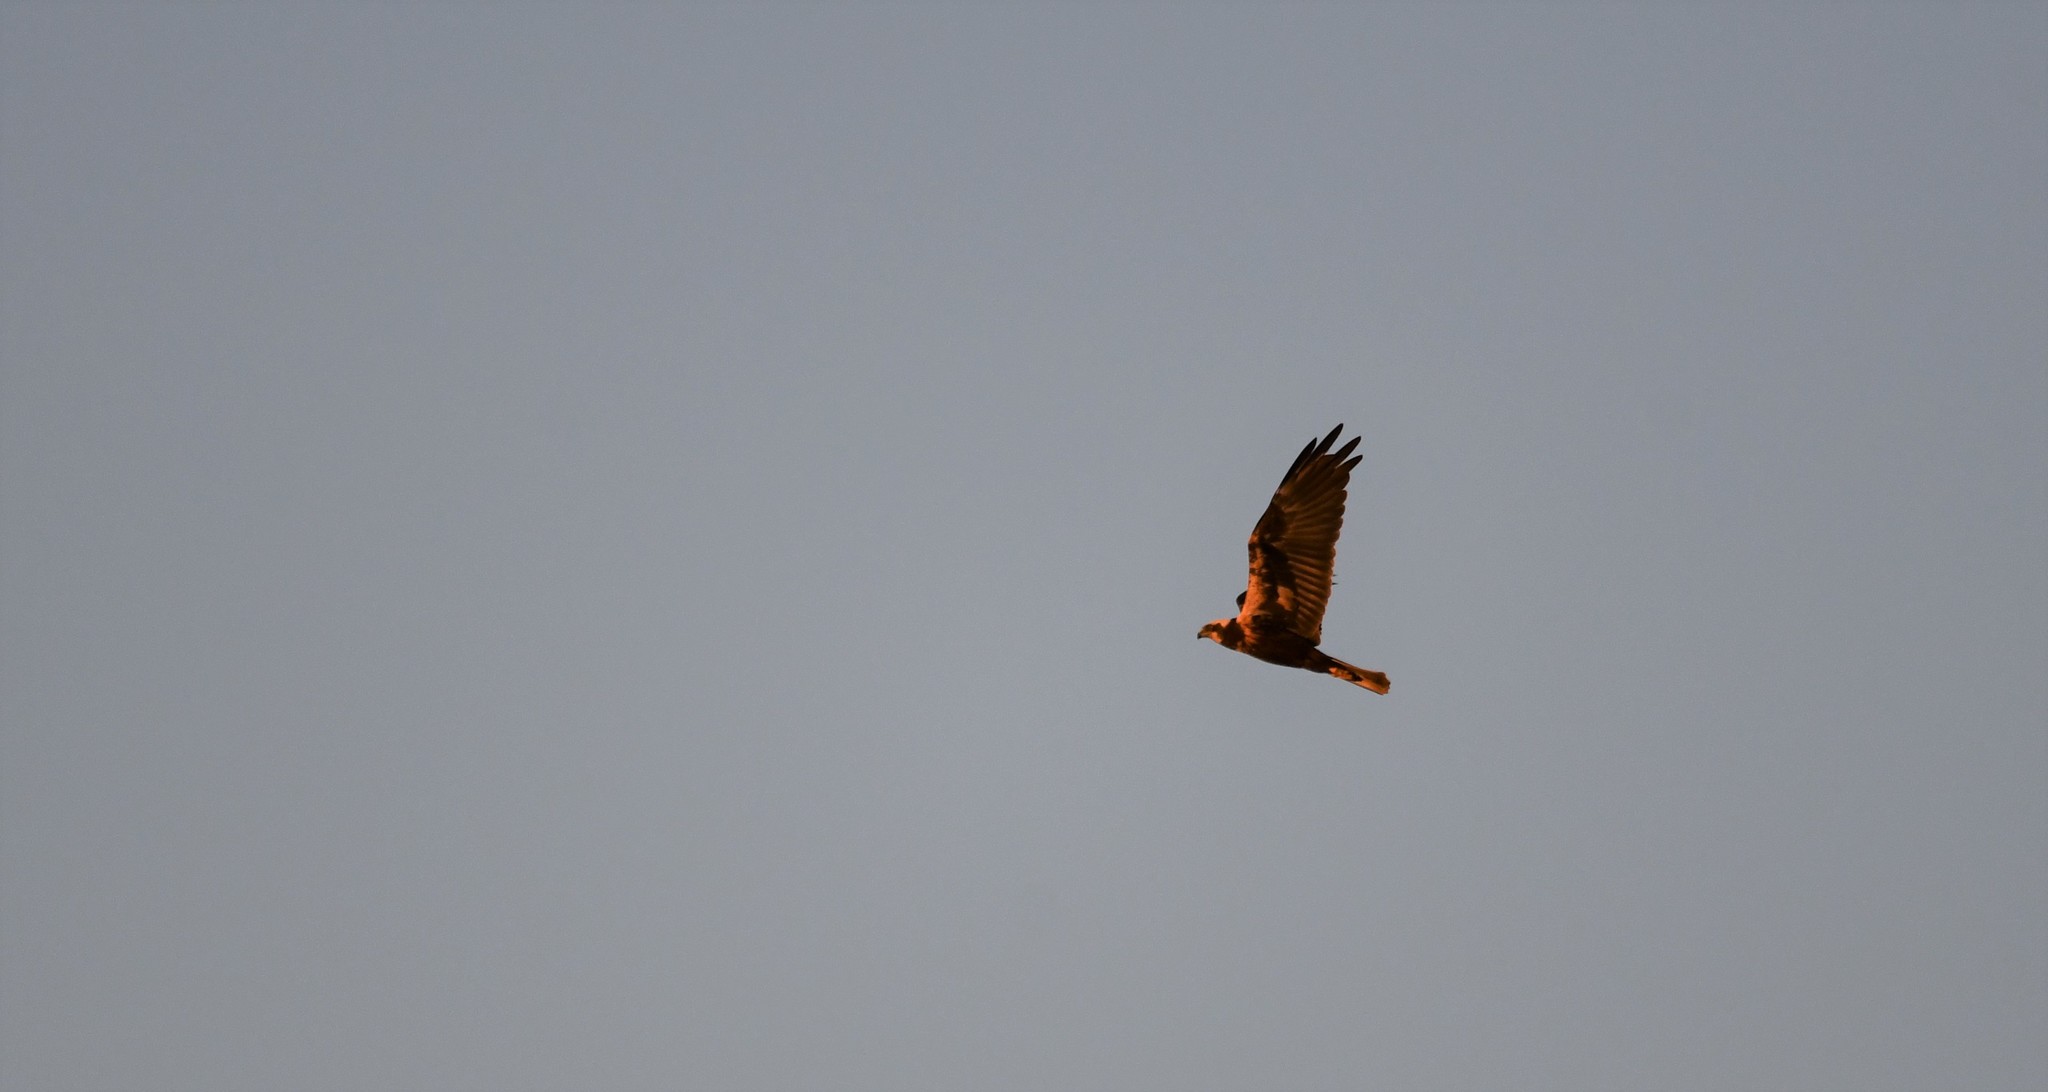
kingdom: Animalia
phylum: Chordata
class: Aves
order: Accipitriformes
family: Accipitridae
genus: Circus
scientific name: Circus aeruginosus
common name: Western marsh harrier
